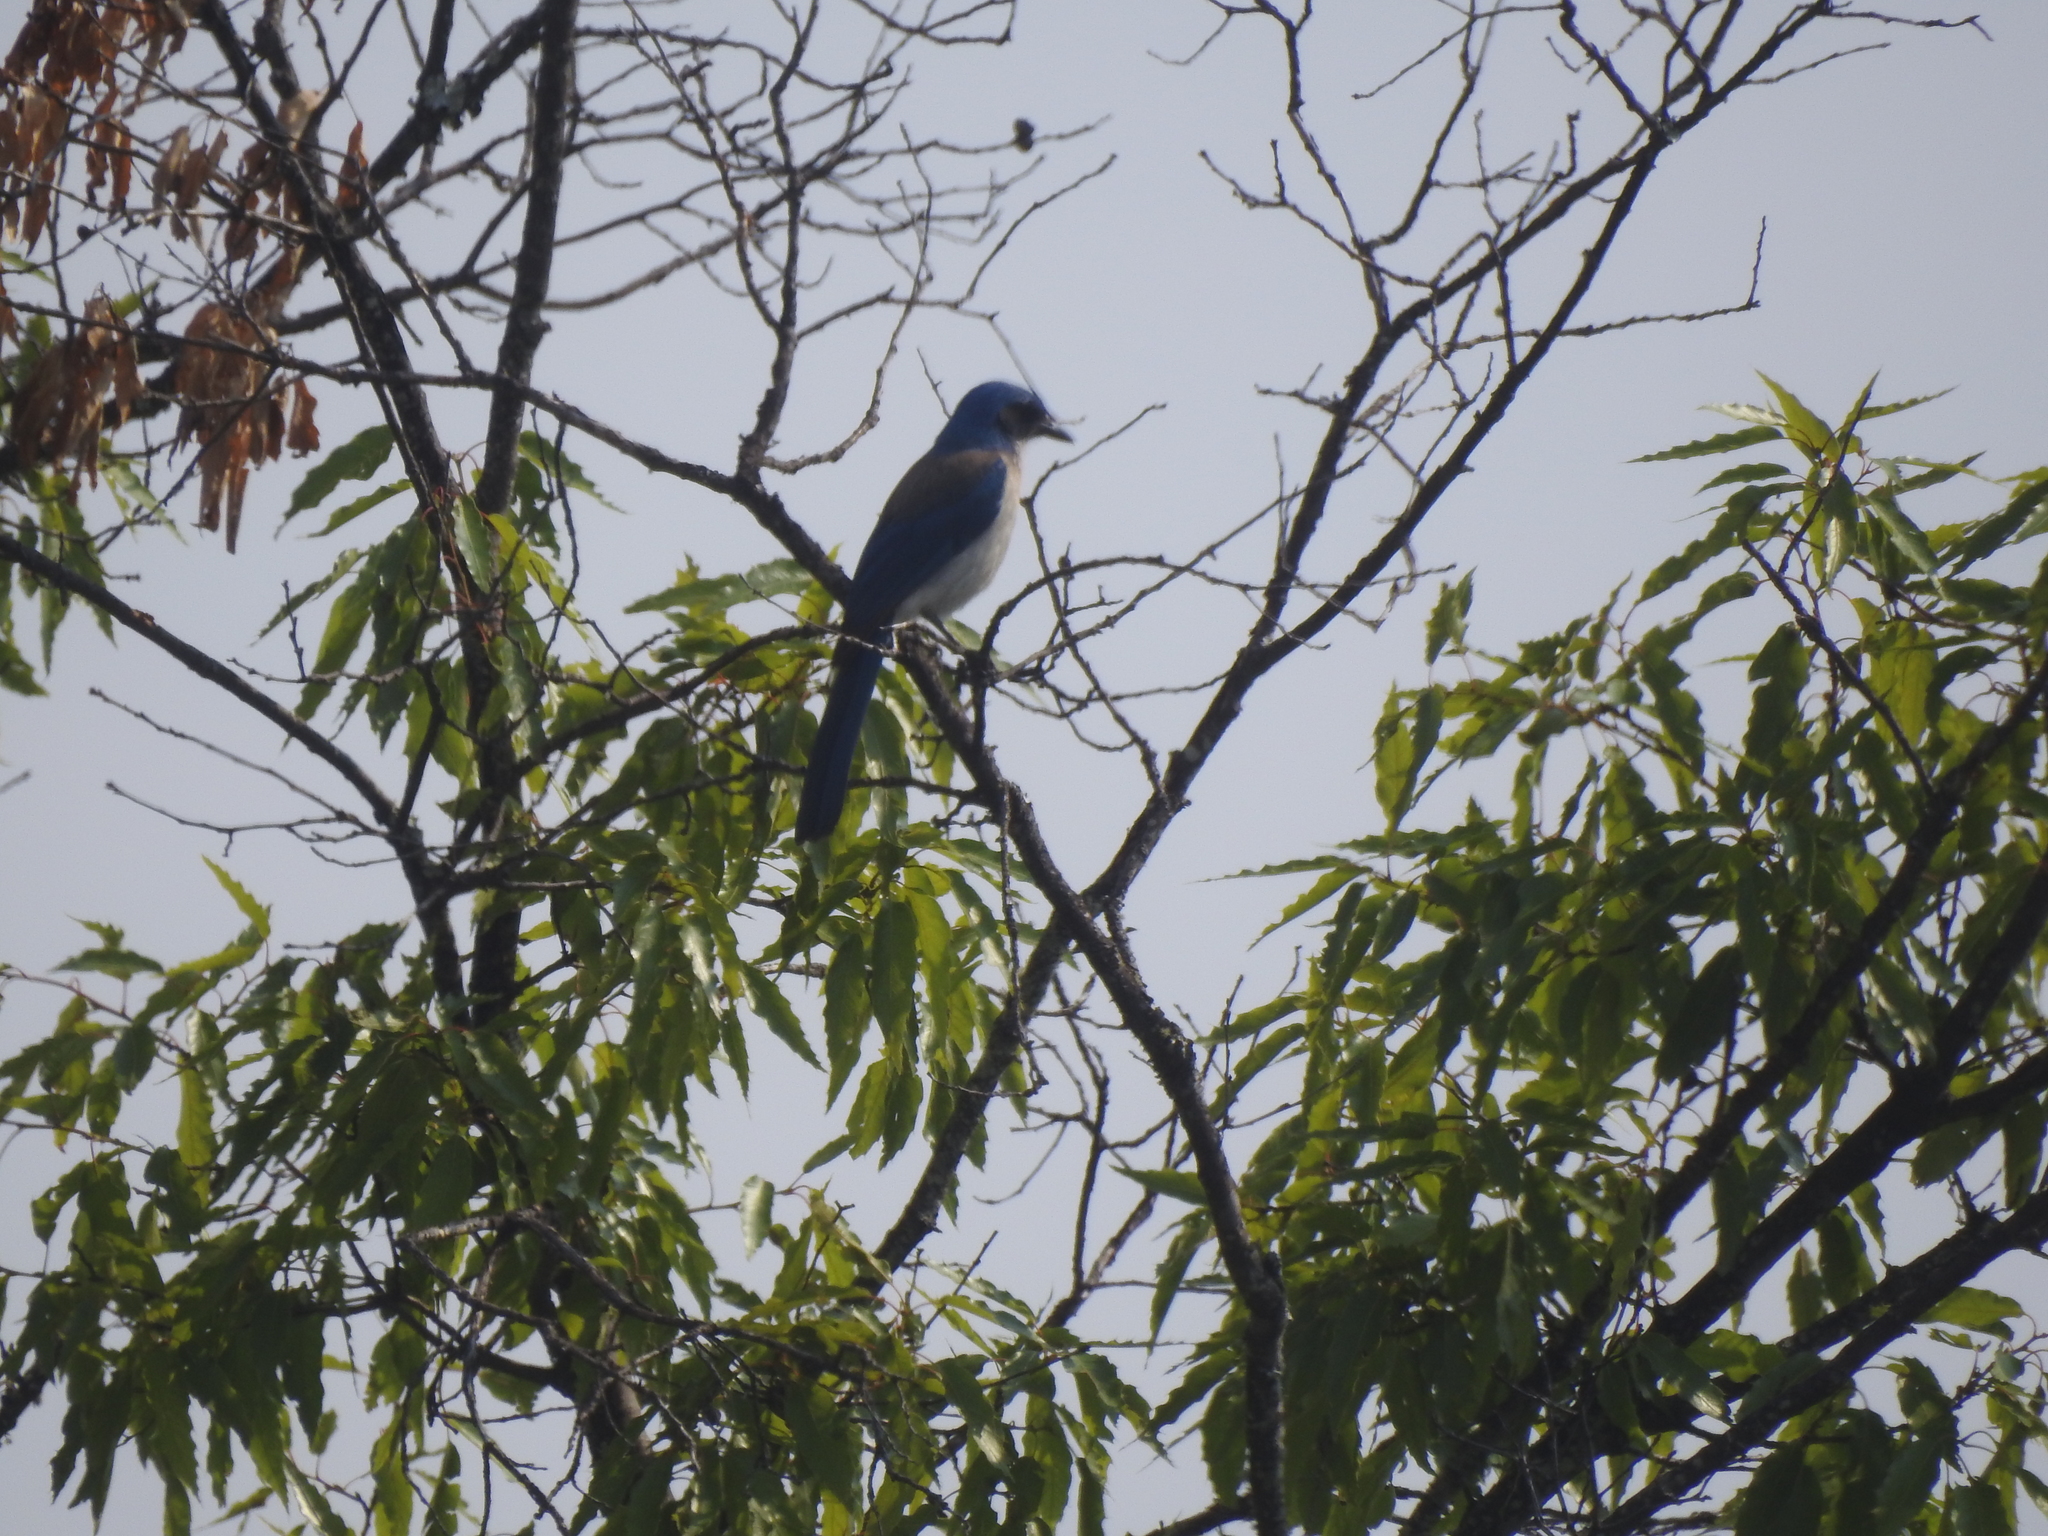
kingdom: Animalia
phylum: Chordata
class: Aves
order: Passeriformes
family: Corvidae
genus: Aphelocoma
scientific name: Aphelocoma woodhouseii
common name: Woodhouse's scrub-jay
